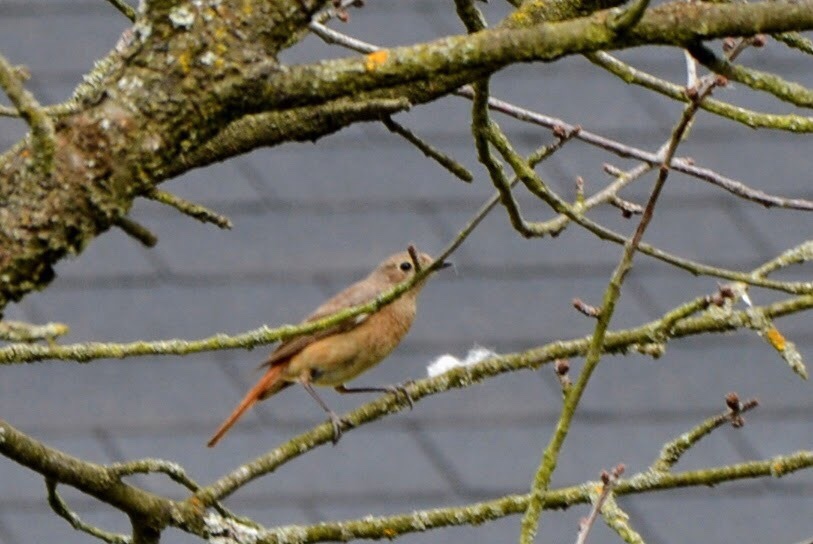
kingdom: Animalia
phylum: Chordata
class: Aves
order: Passeriformes
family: Muscicapidae
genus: Phoenicurus
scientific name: Phoenicurus phoenicurus
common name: Common redstart
